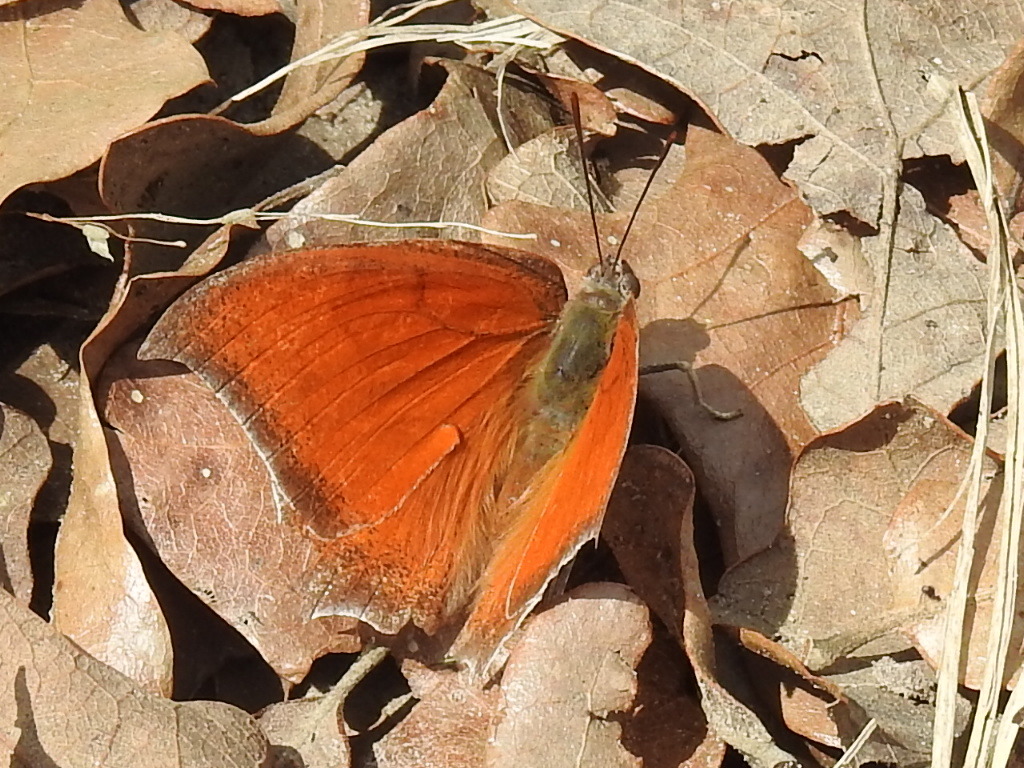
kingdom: Animalia
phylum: Arthropoda
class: Insecta
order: Lepidoptera
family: Nymphalidae
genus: Anaea
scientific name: Anaea andria
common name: Goatweed leafwing
